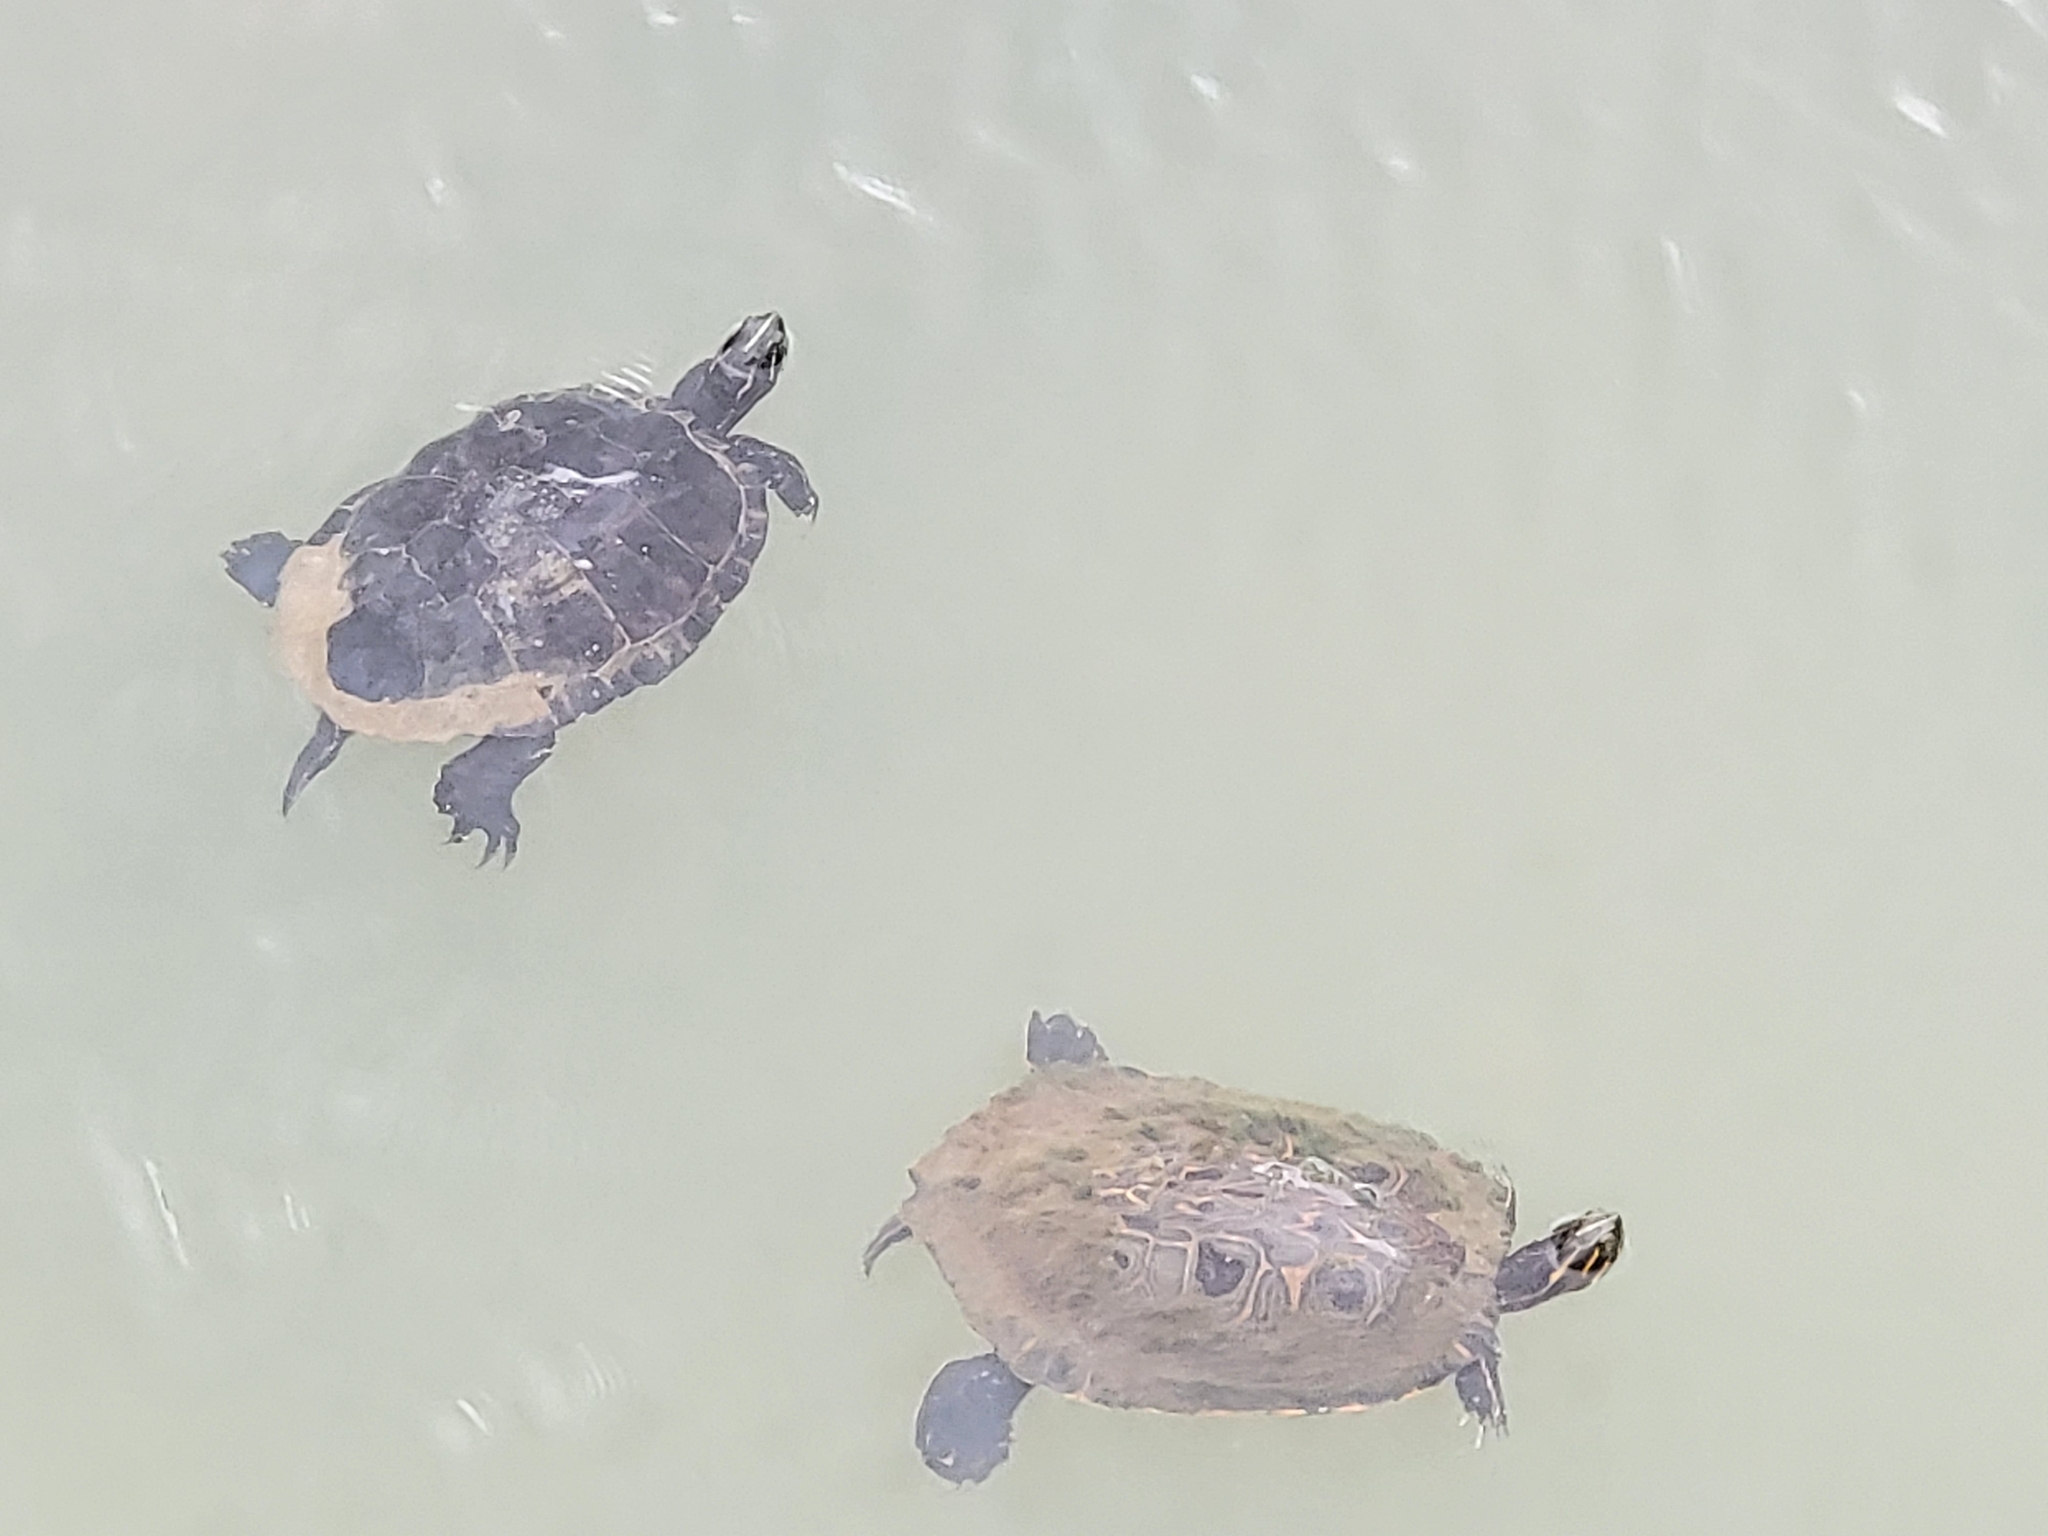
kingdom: Animalia
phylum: Chordata
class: Testudines
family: Emydidae
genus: Pseudemys
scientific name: Pseudemys concinna
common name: Eastern river cooter
